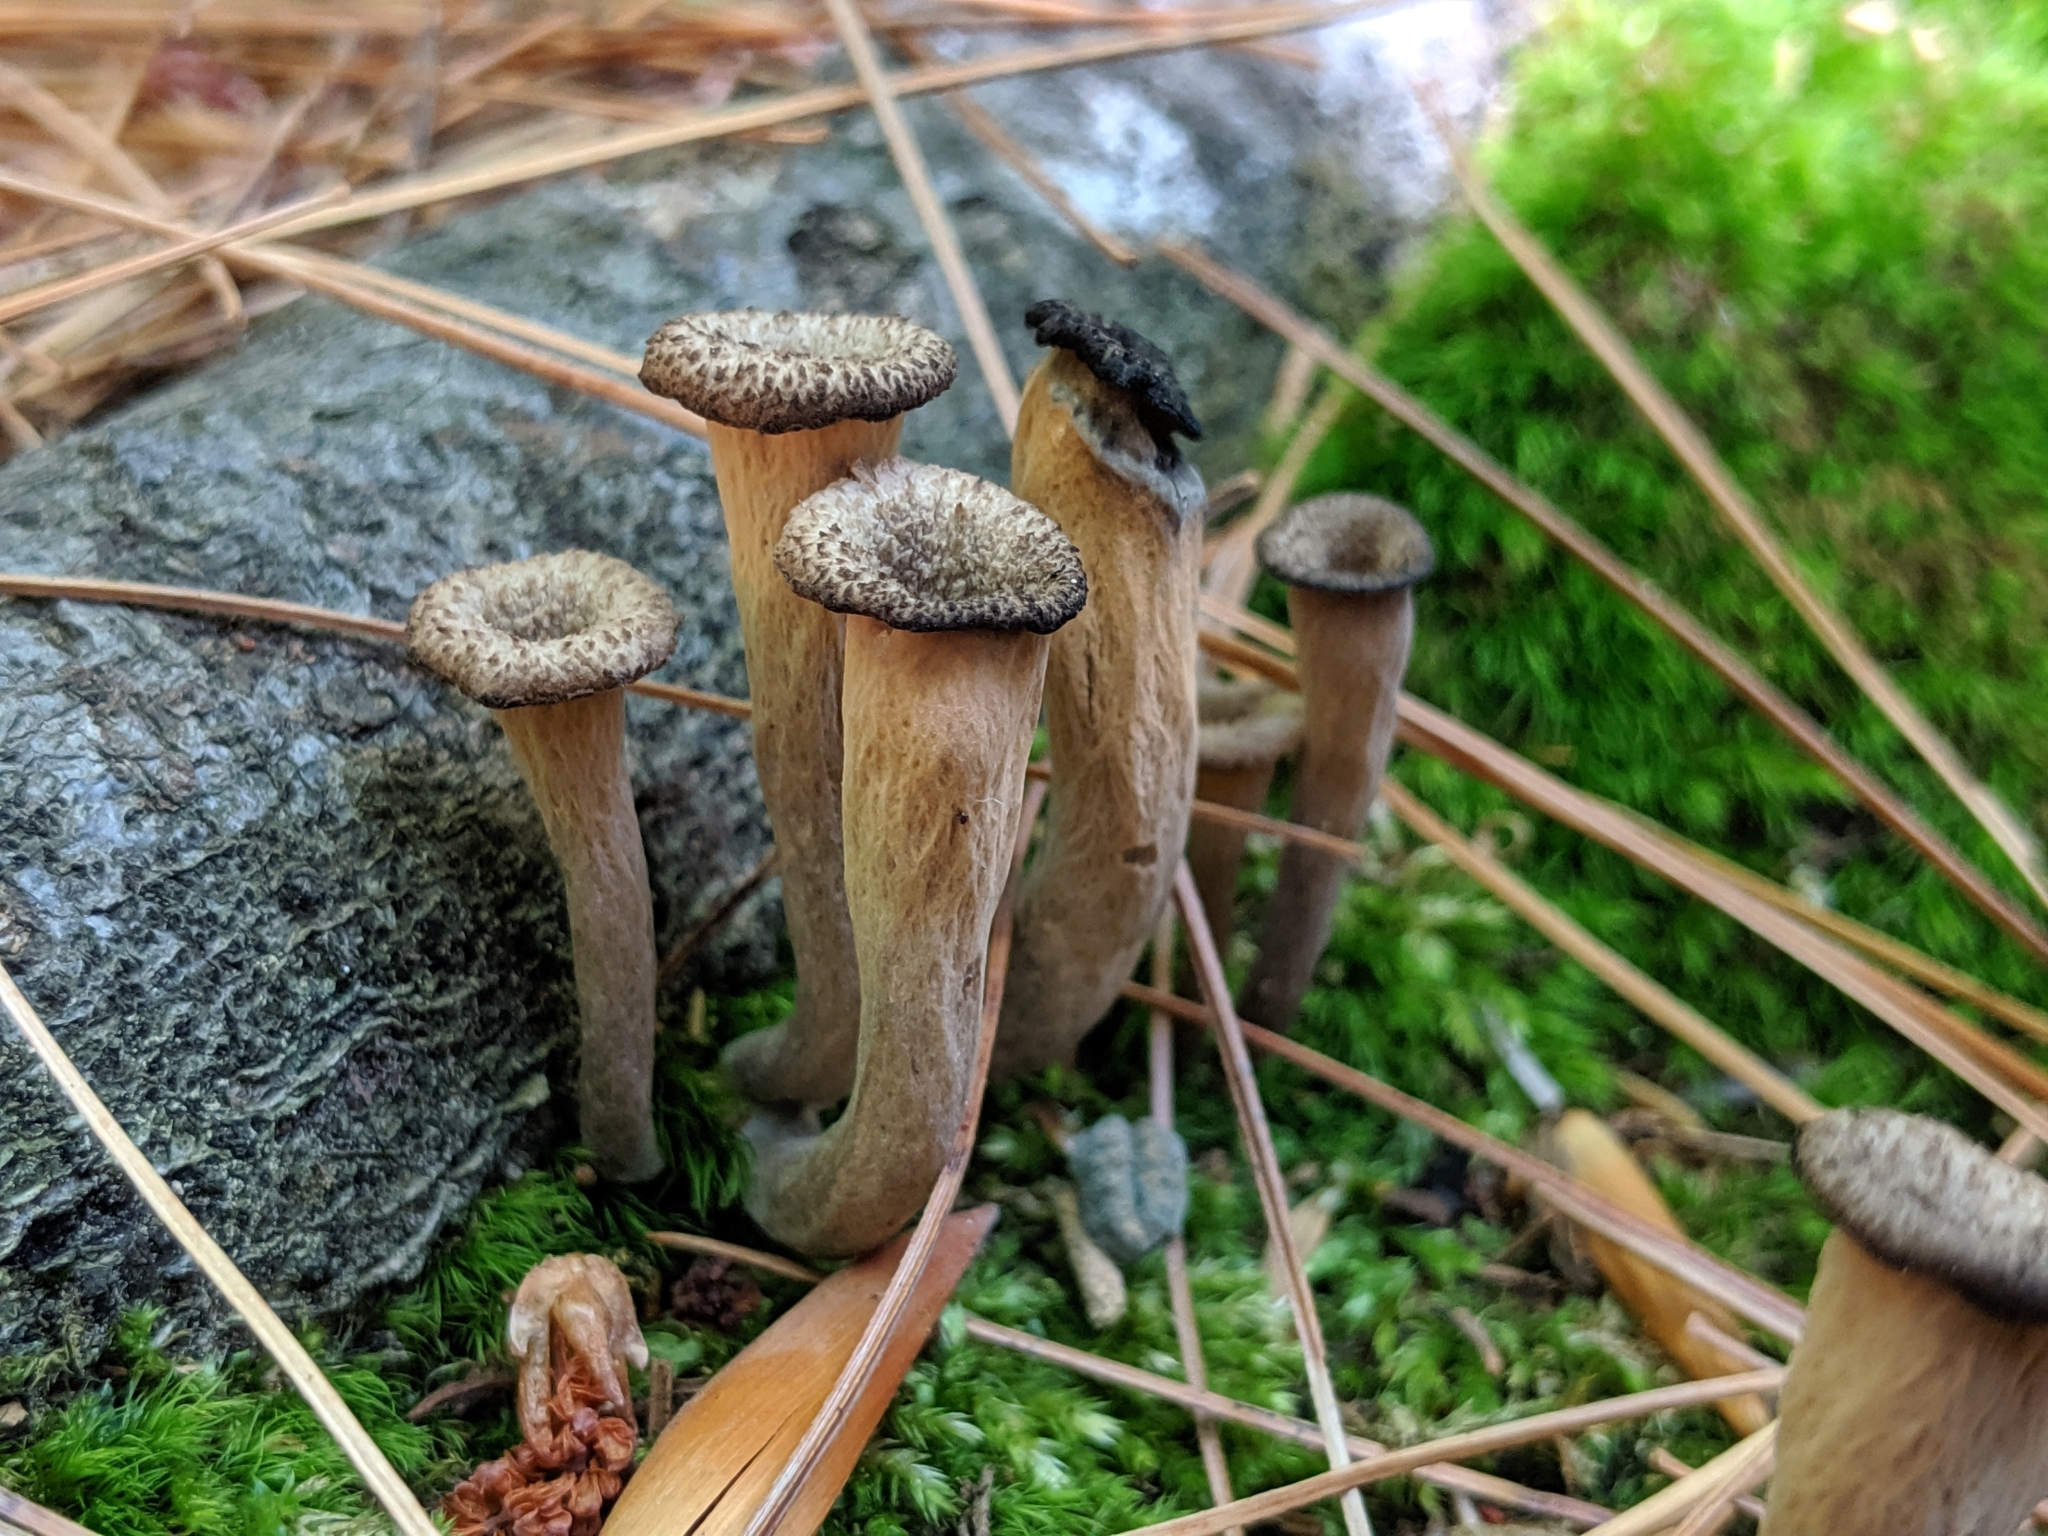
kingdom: Fungi
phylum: Basidiomycota
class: Agaricomycetes
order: Cantharellales
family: Hydnaceae
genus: Craterellus
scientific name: Craterellus cornucopioides
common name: Horn of plenty
